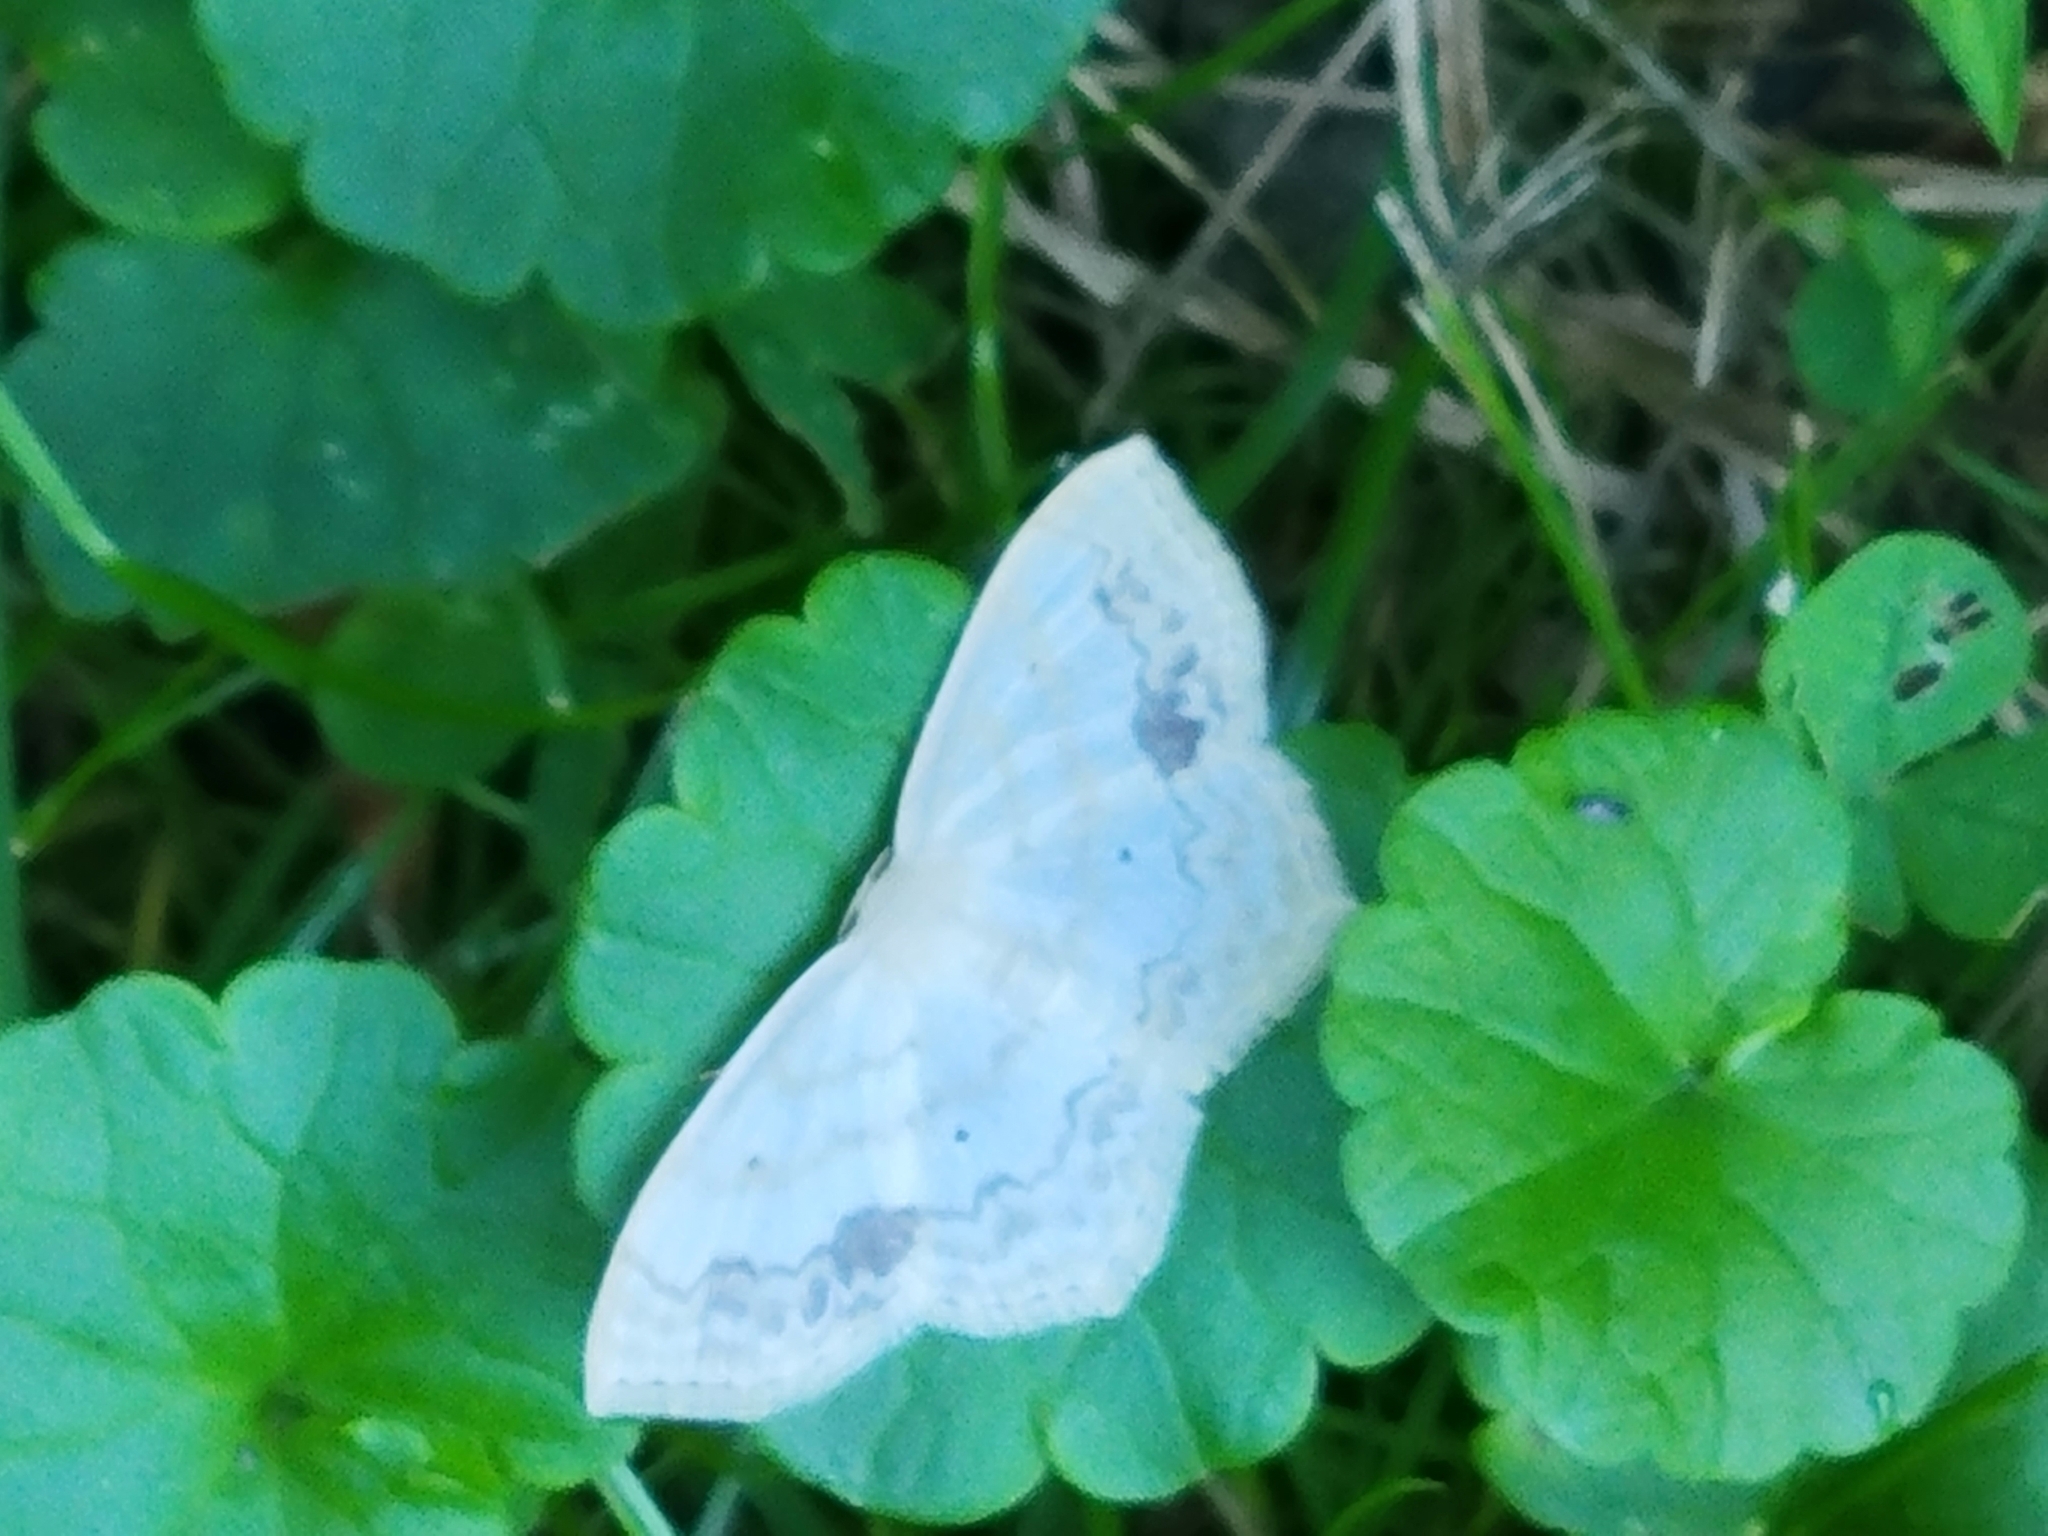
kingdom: Animalia
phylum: Arthropoda
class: Insecta
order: Lepidoptera
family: Geometridae
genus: Scopula
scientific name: Scopula limboundata
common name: Large lace border
